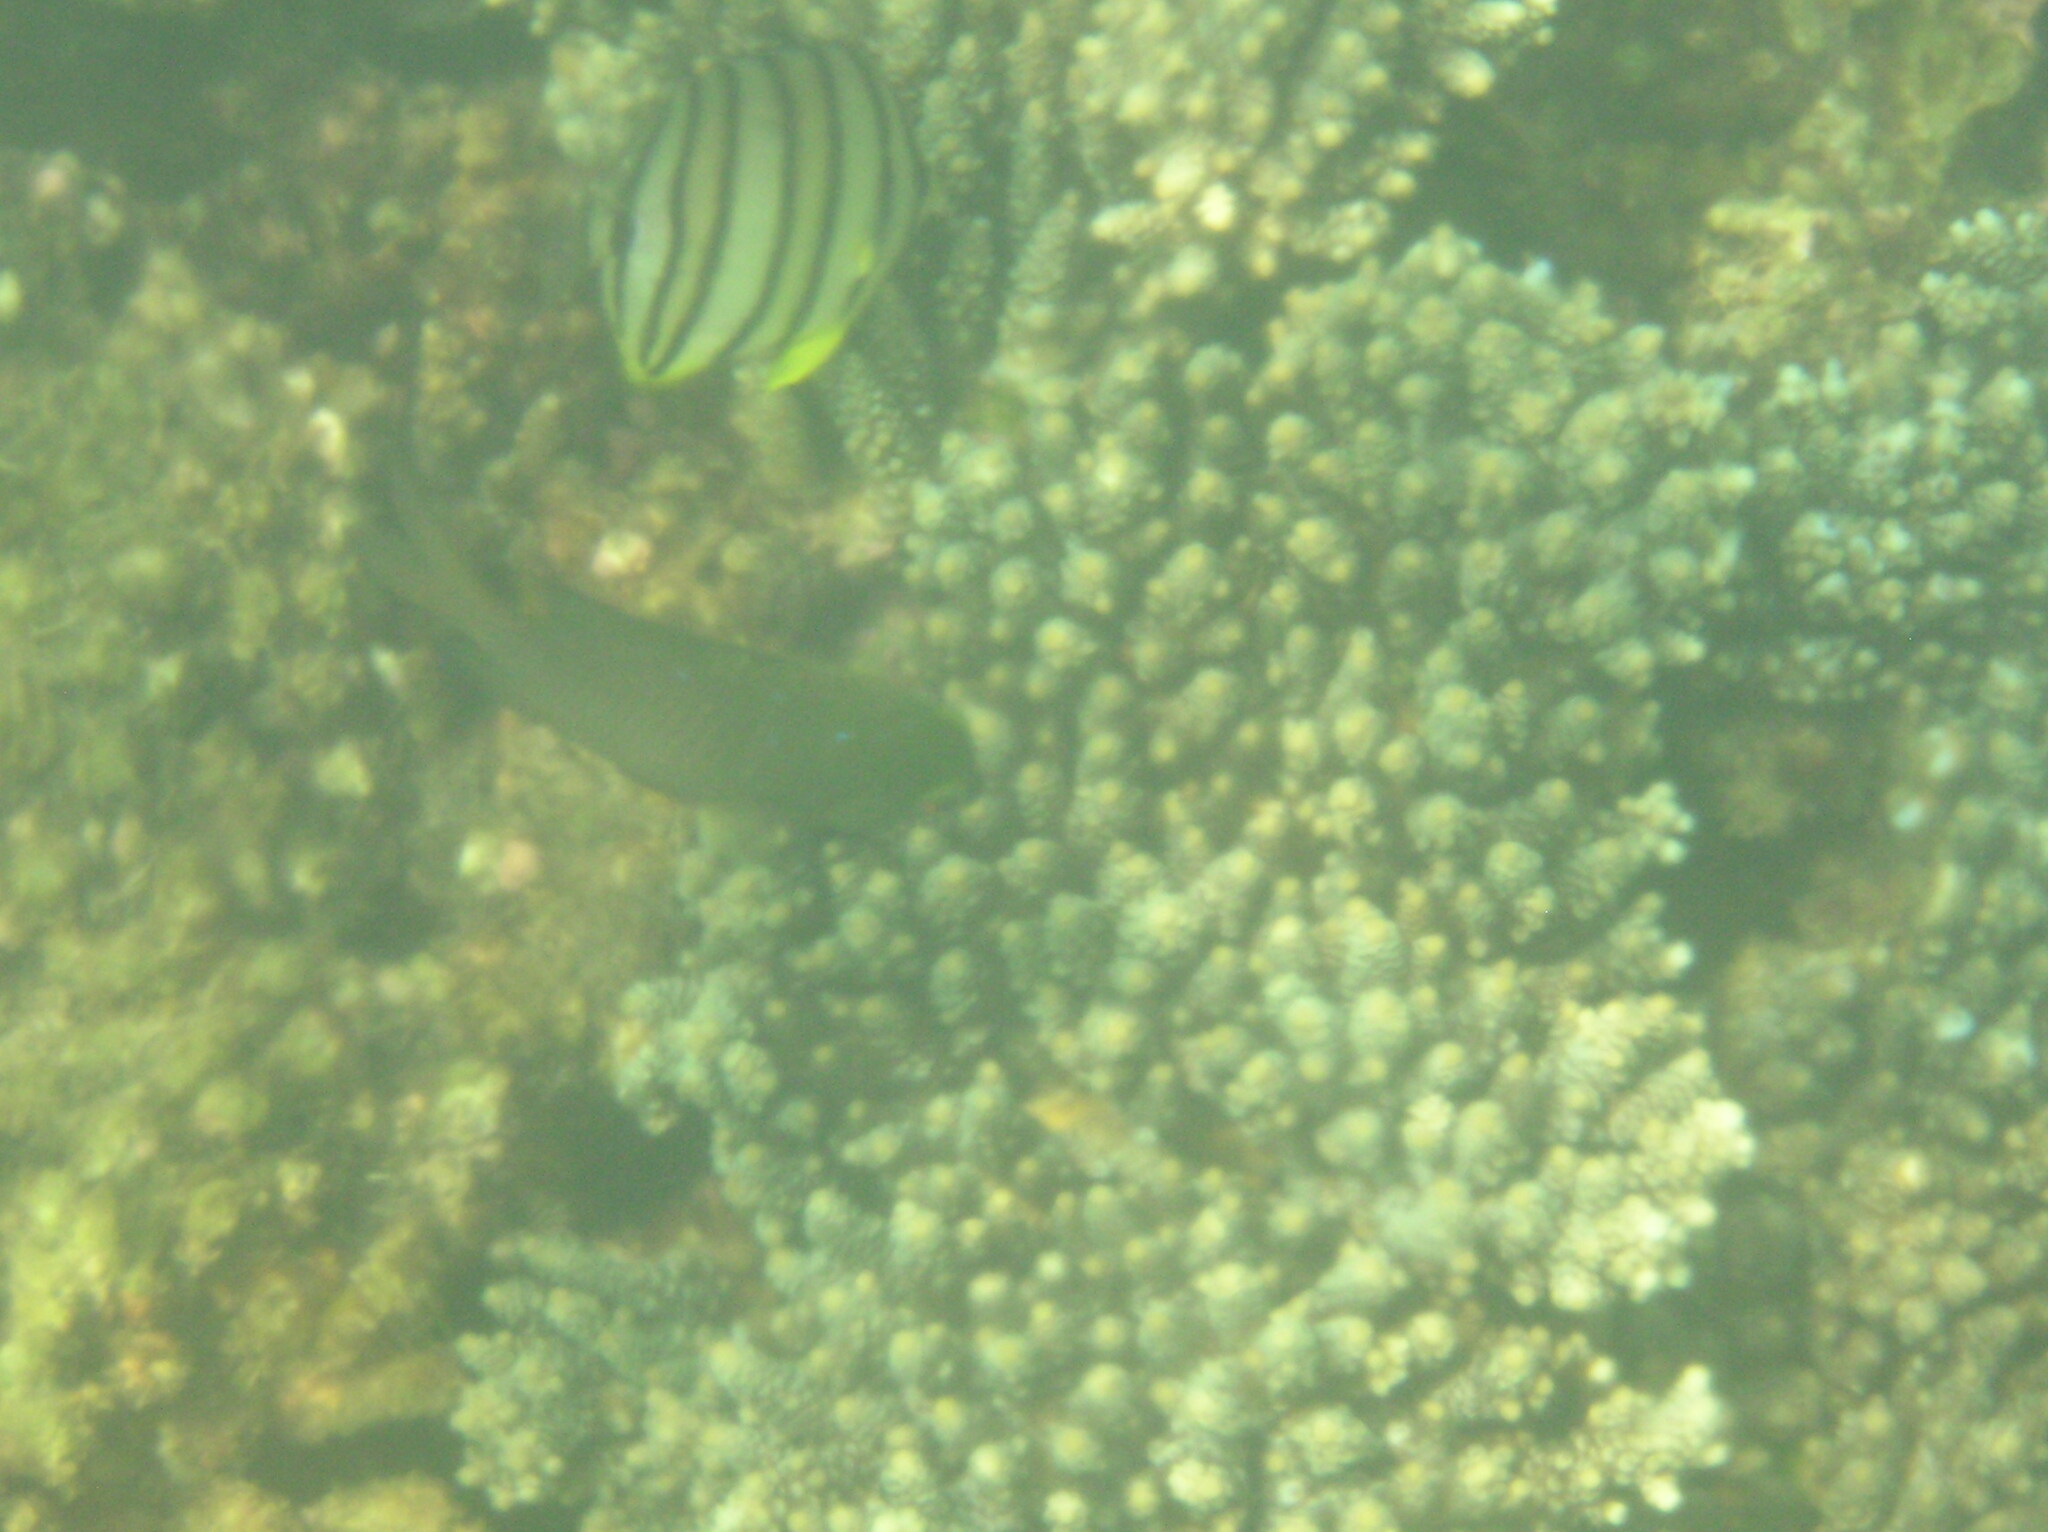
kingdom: Animalia
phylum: Chordata
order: Perciformes
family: Chaetodontidae
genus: Chaetodon
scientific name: Chaetodon octofasciatus
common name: Eightband butterflyfish
